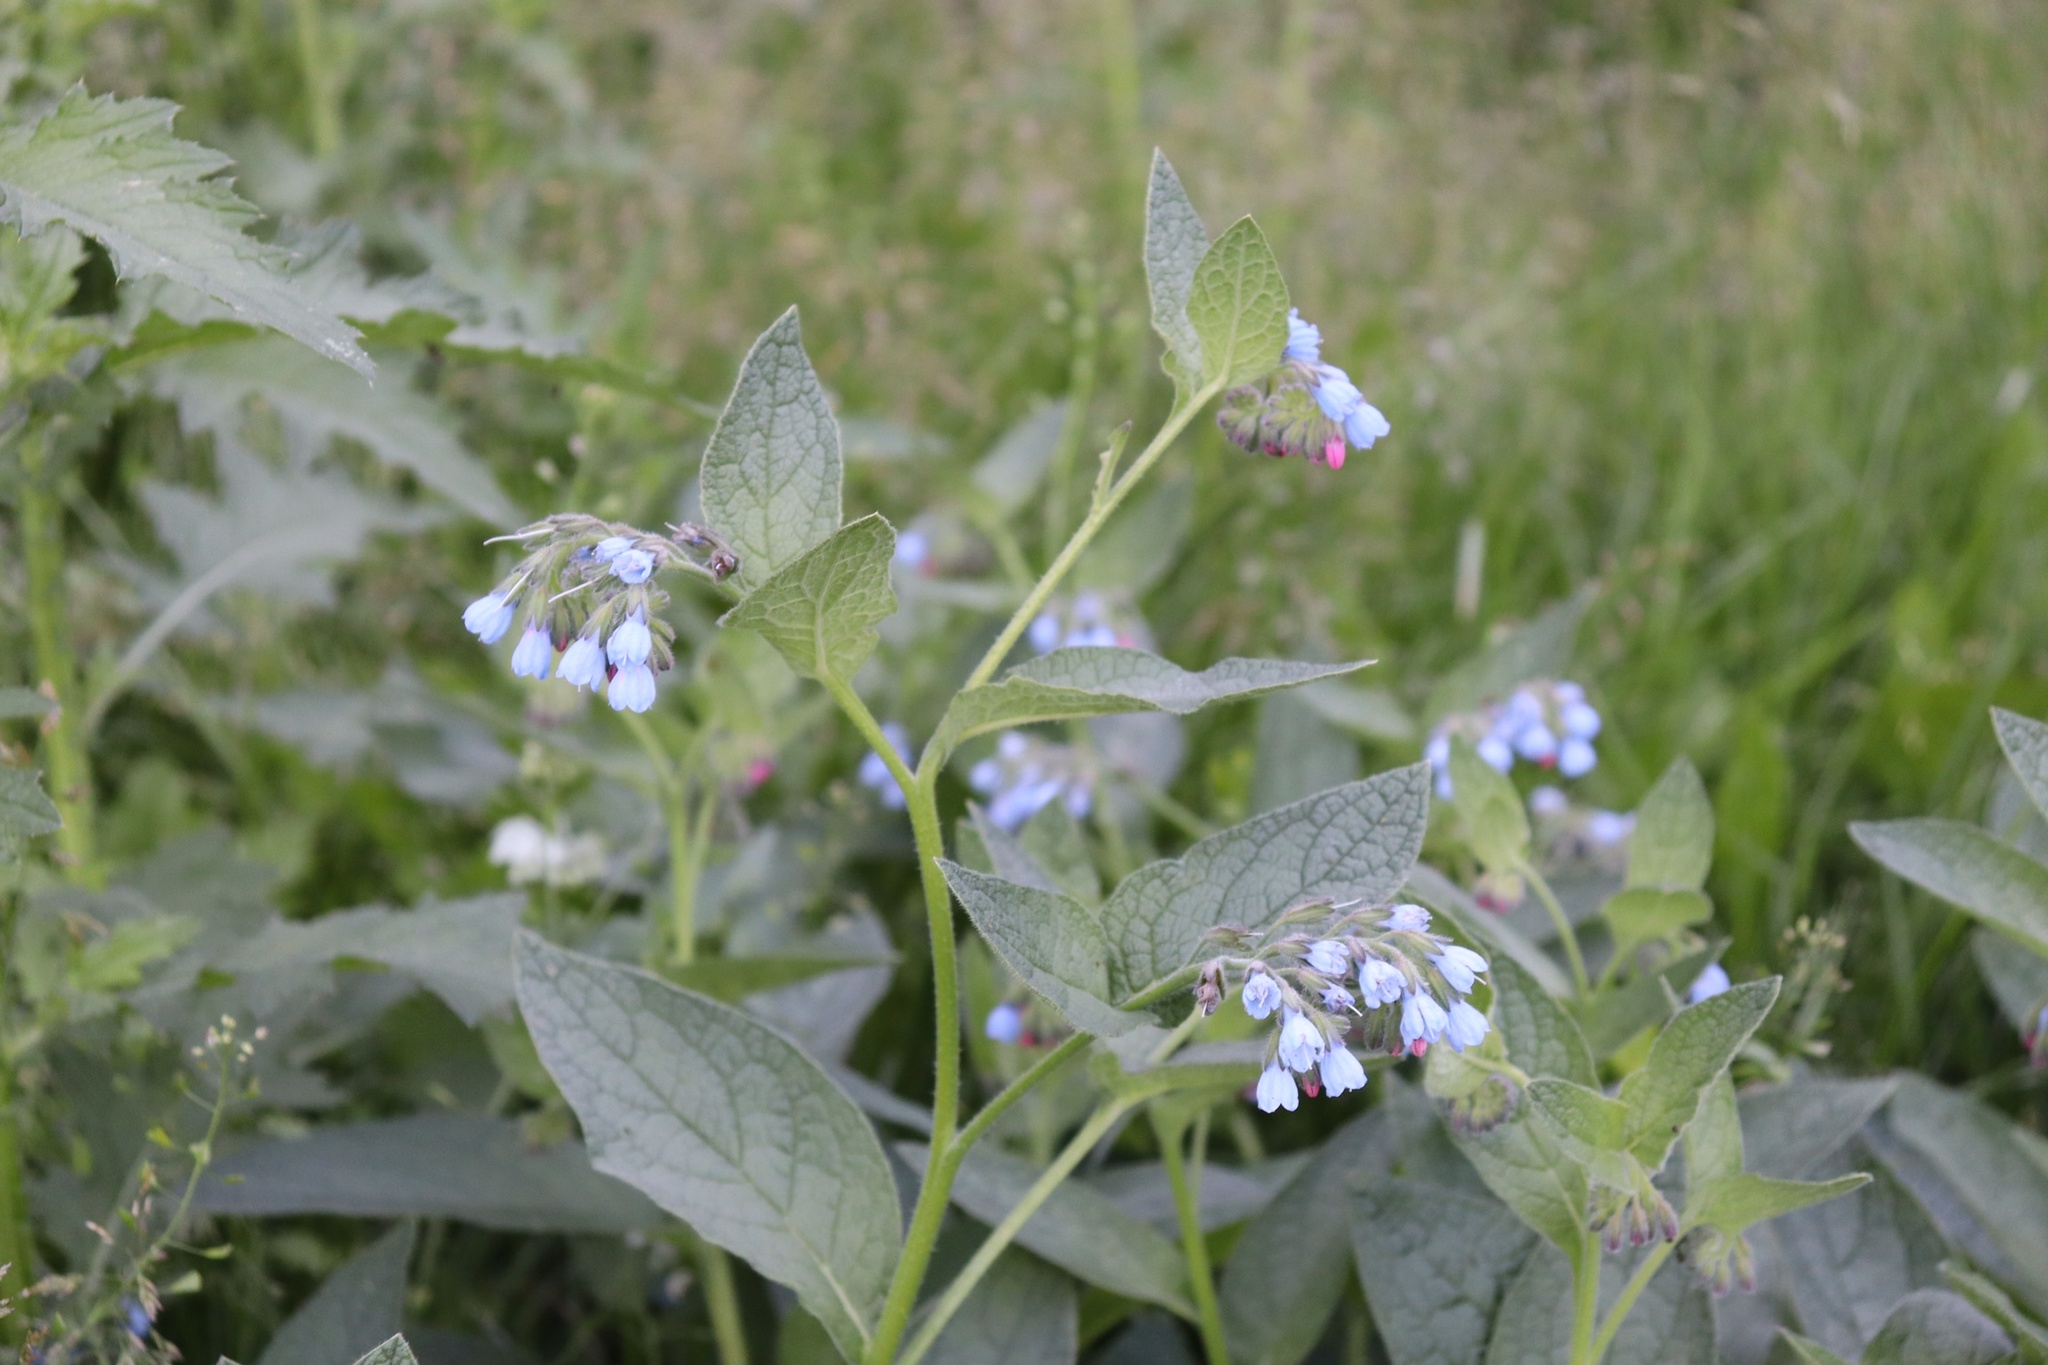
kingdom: Plantae
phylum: Tracheophyta
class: Magnoliopsida
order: Boraginales
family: Boraginaceae
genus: Symphytum
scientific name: Symphytum caucasicum
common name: Caucasian comfrey
